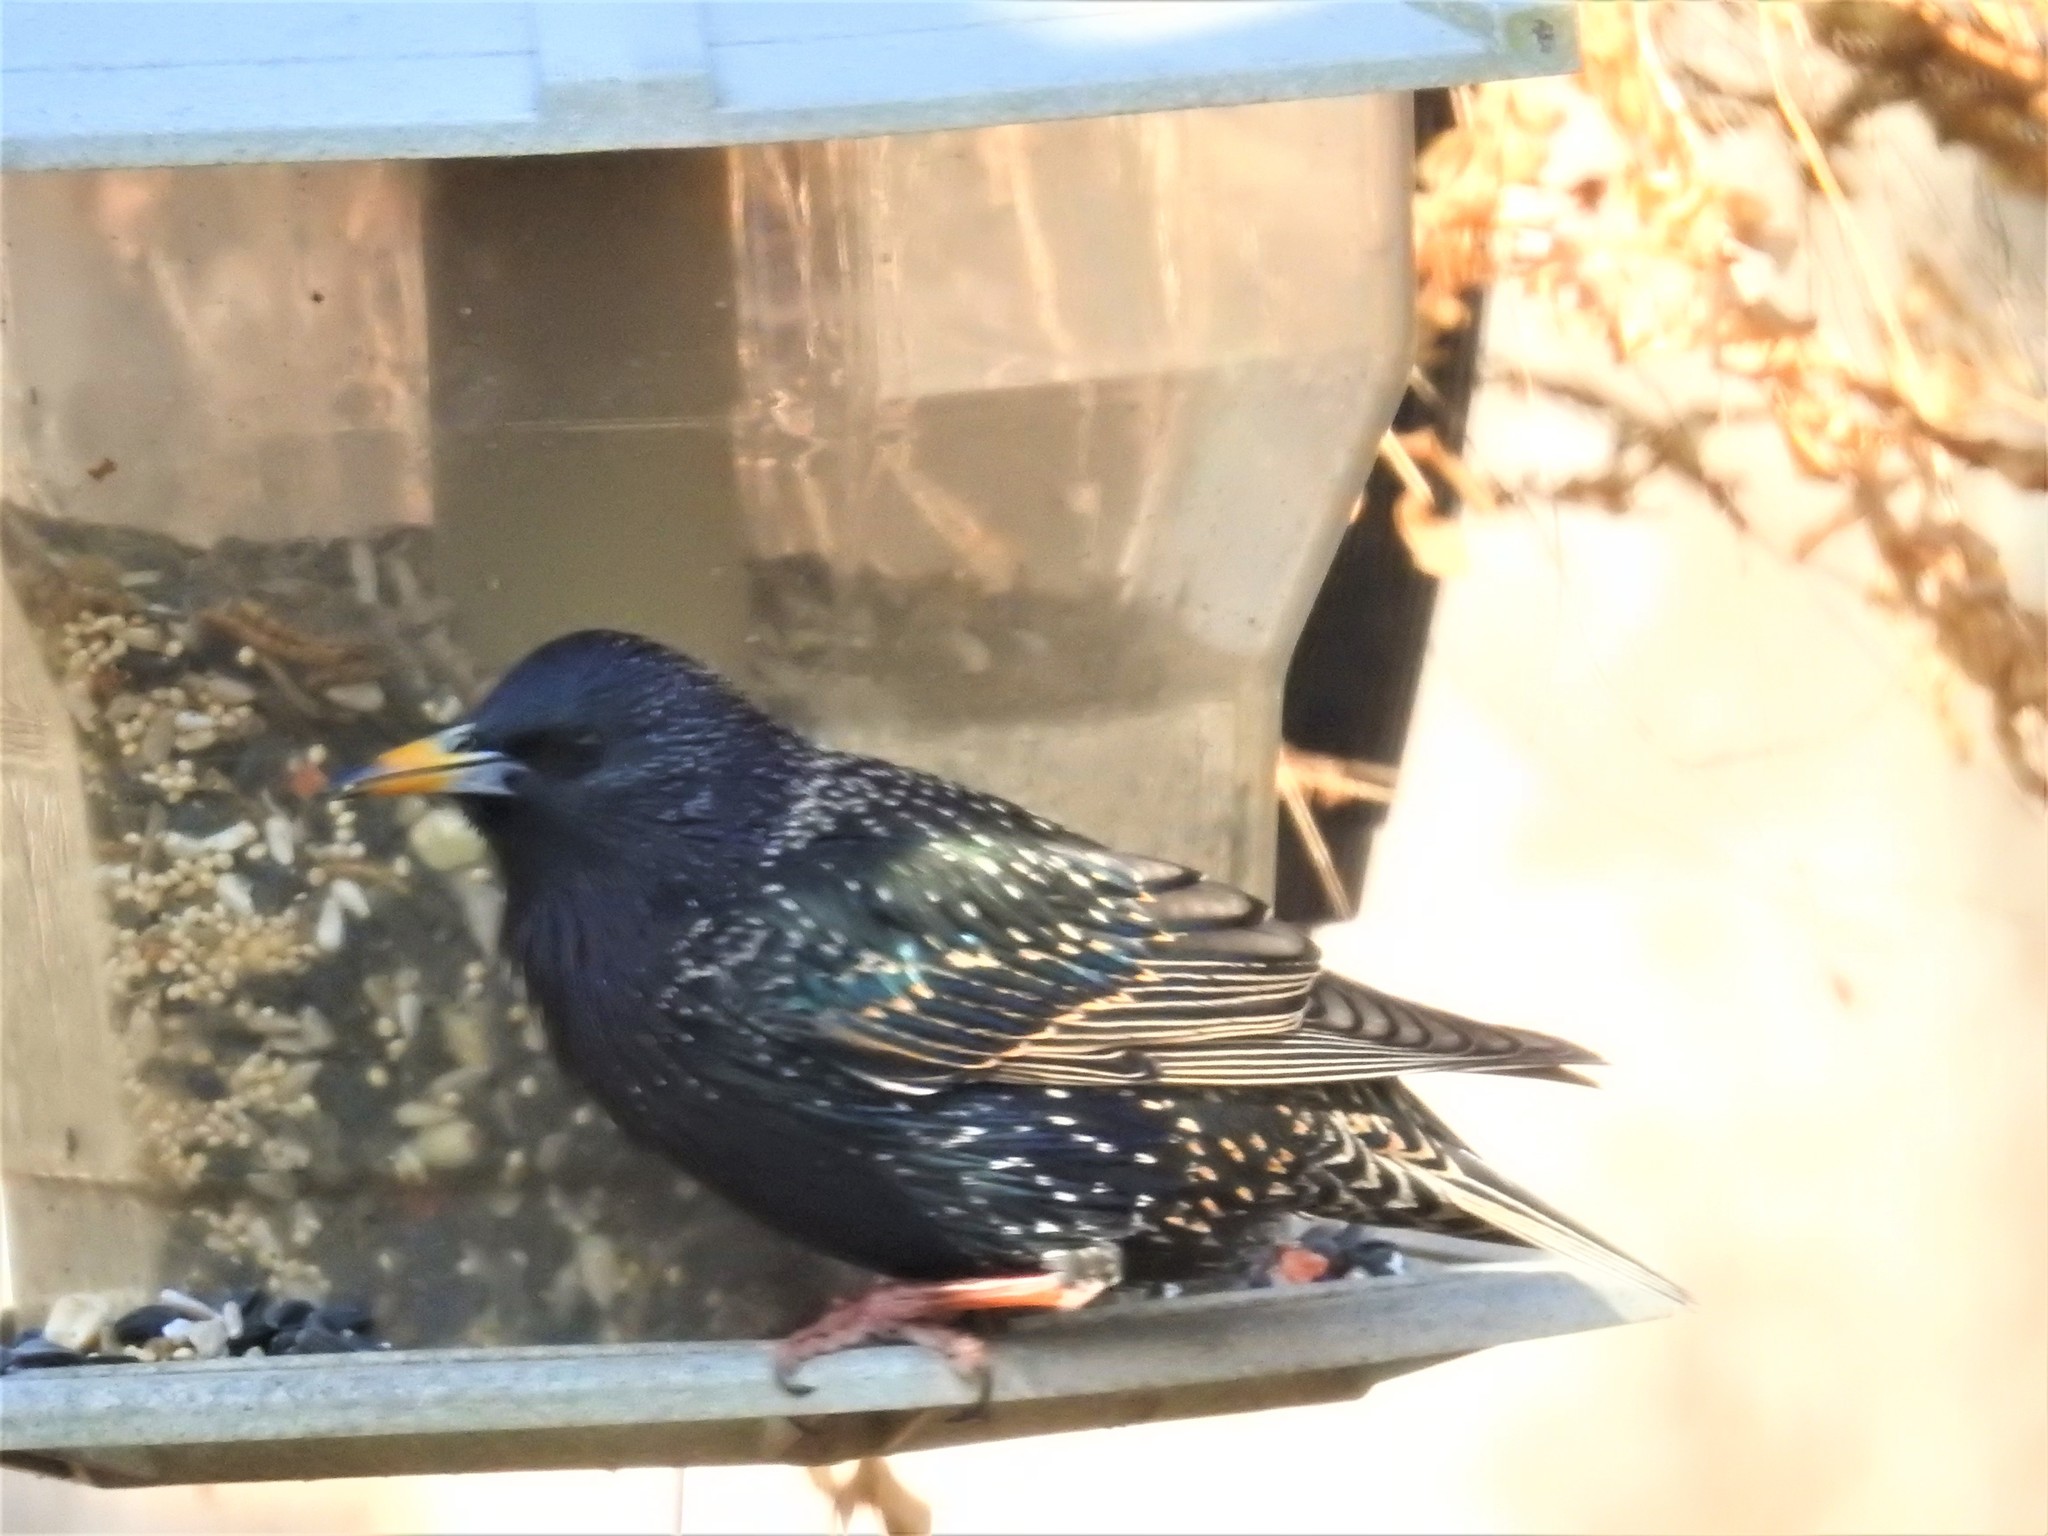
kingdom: Animalia
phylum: Chordata
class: Aves
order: Passeriformes
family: Sturnidae
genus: Sturnus
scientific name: Sturnus vulgaris
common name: Common starling
